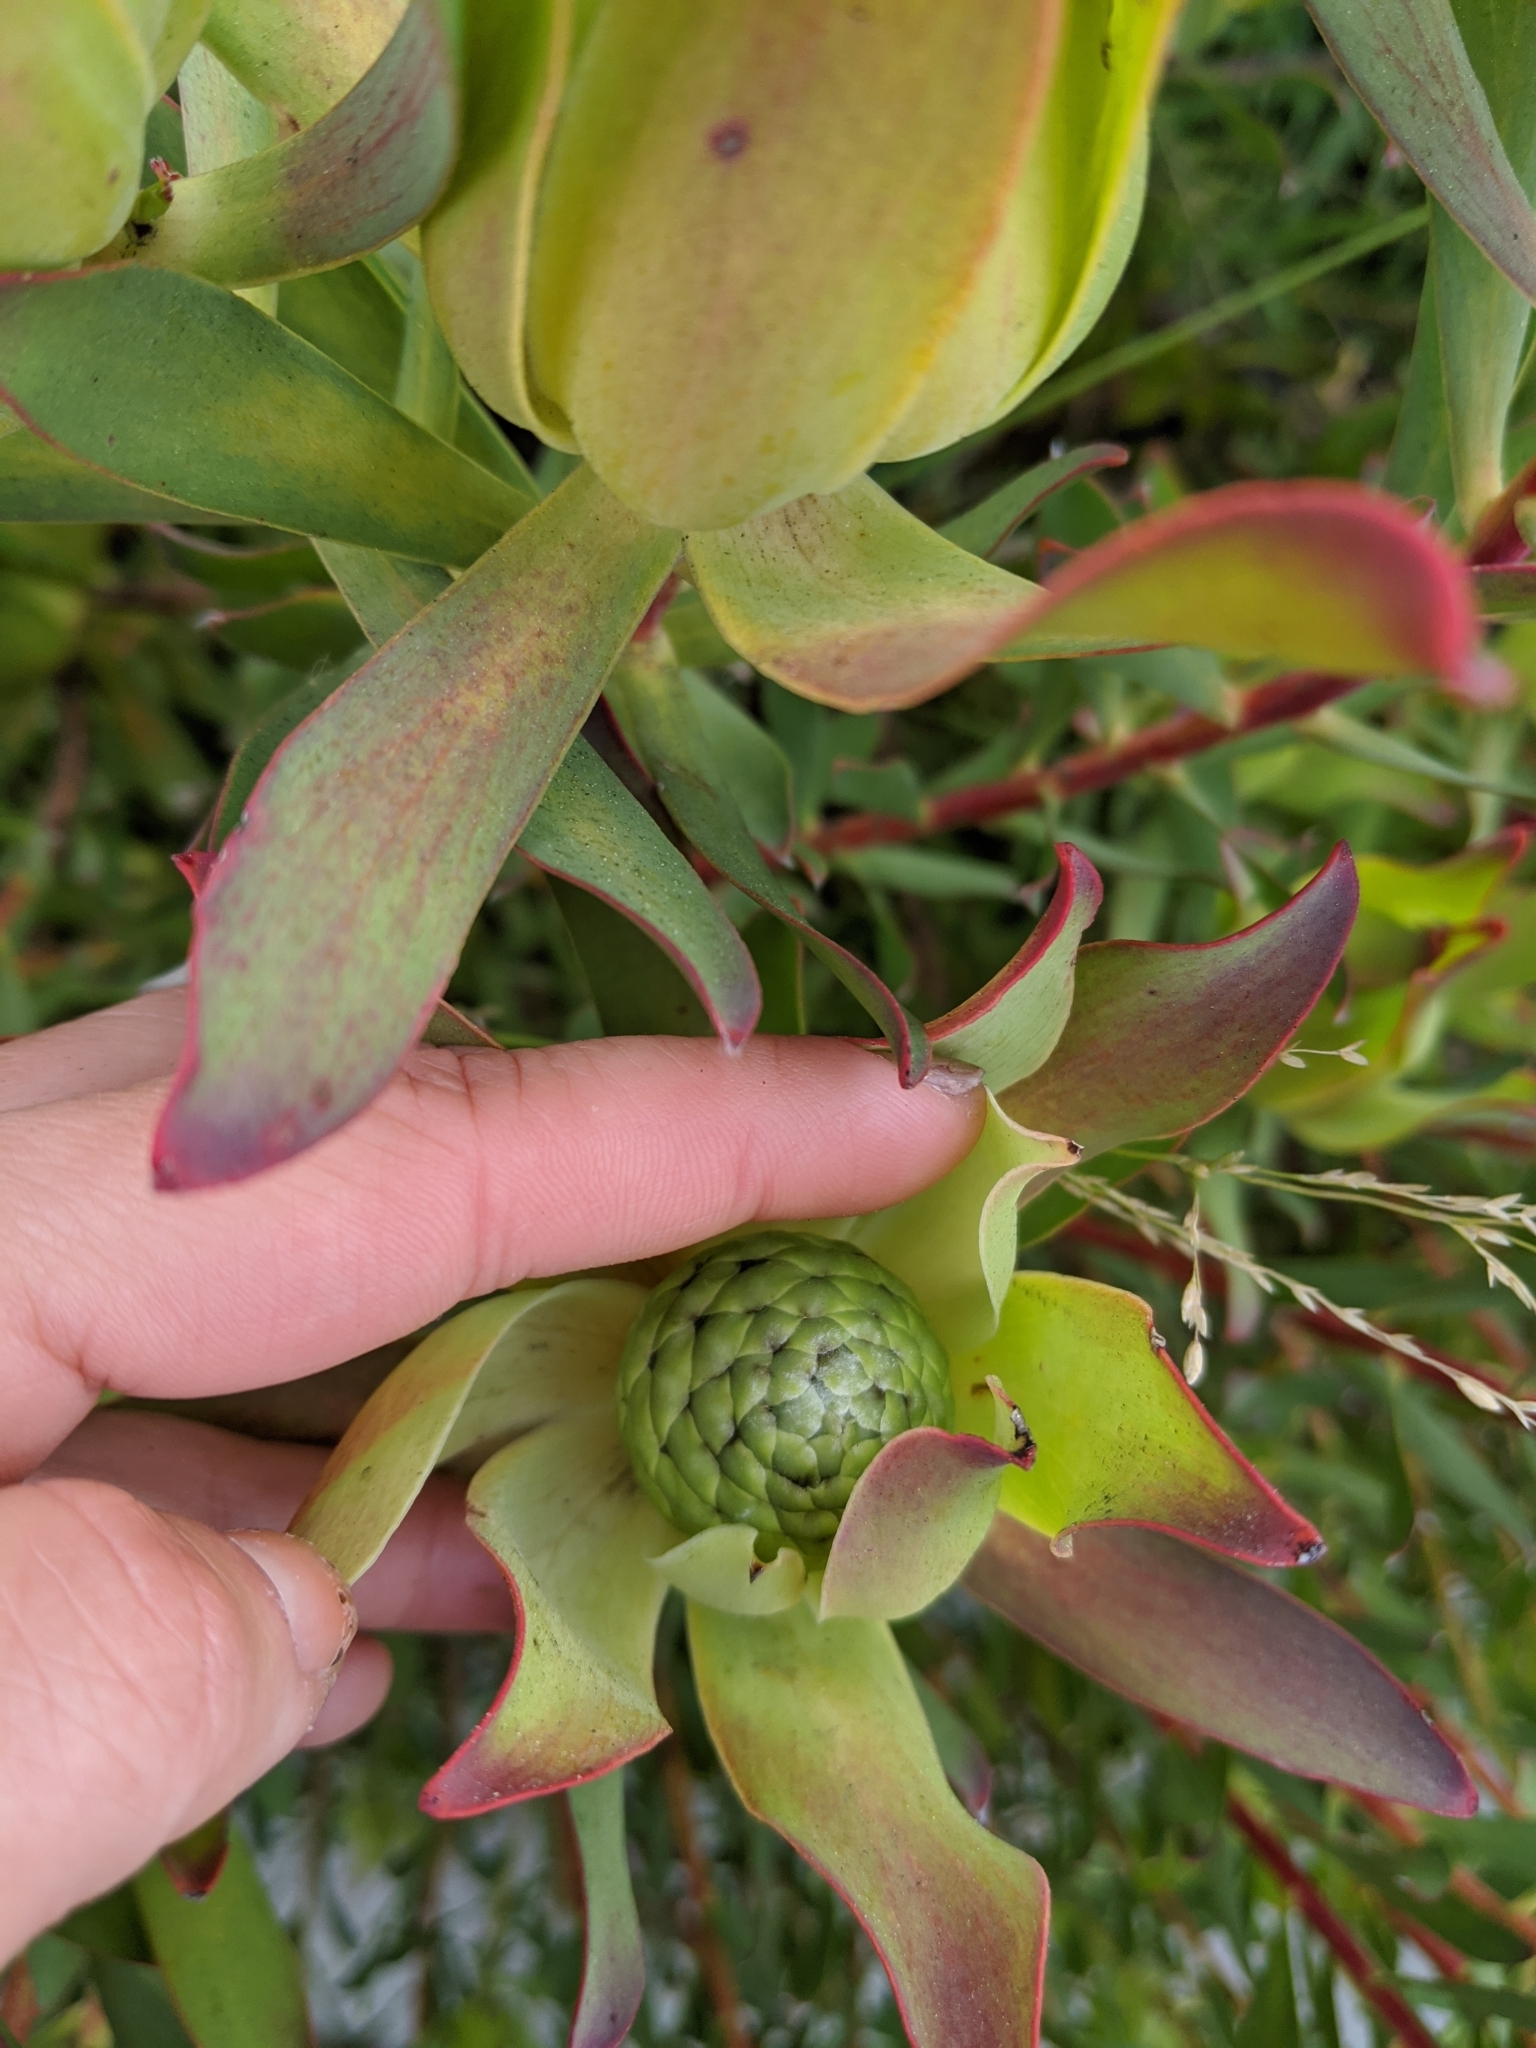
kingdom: Plantae
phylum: Tracheophyta
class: Magnoliopsida
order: Malpighiales
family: Euphorbiaceae
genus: Euphorbia
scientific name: Euphorbia characias
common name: Mediterranean spurge
